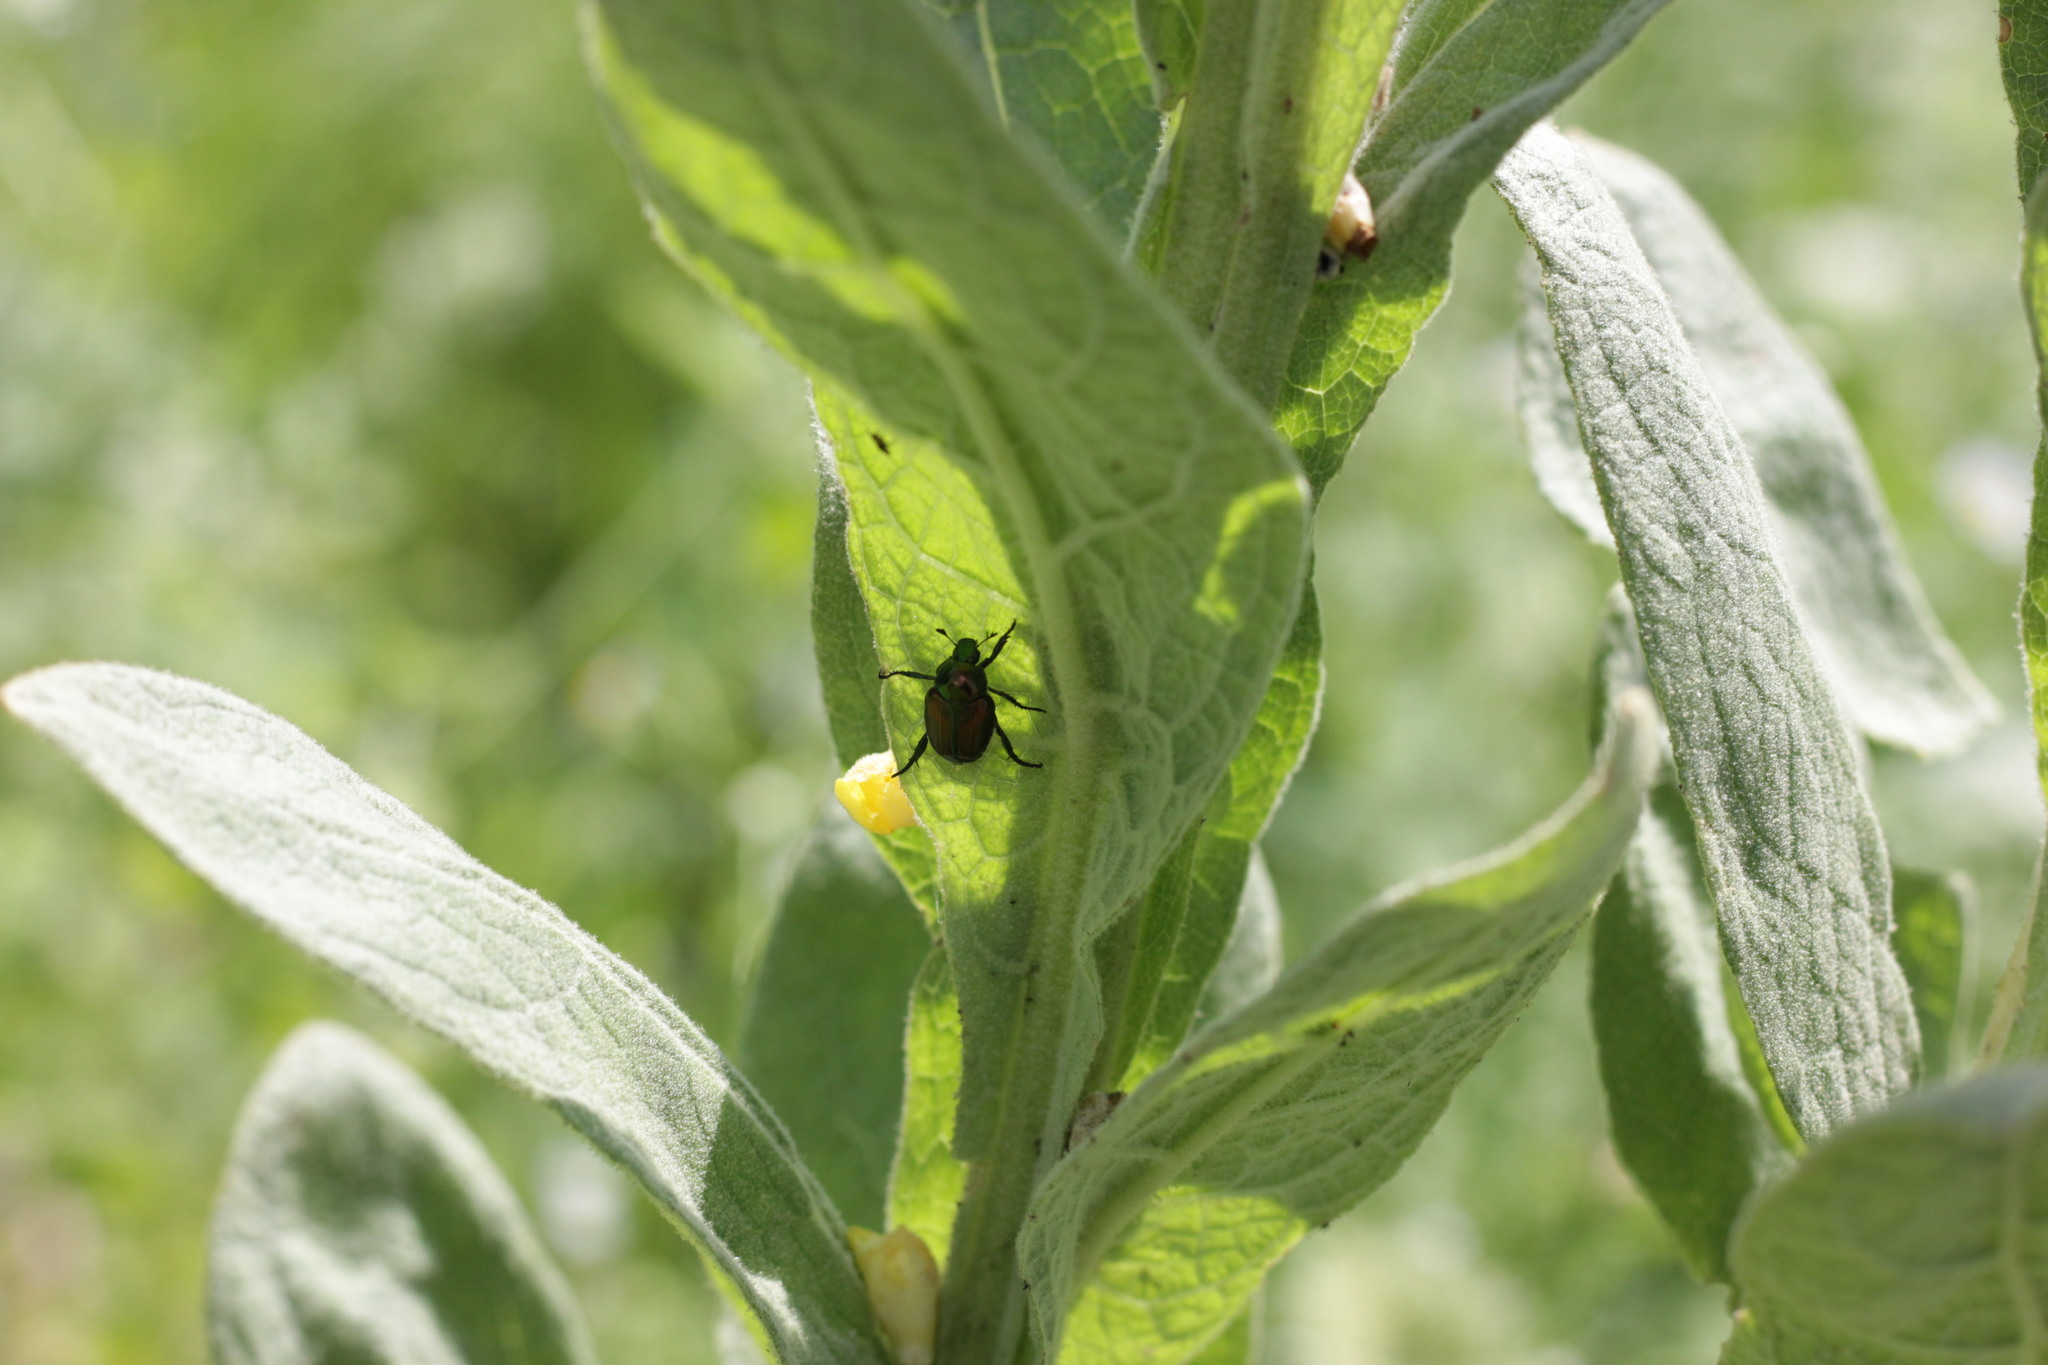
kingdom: Animalia
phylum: Arthropoda
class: Insecta
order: Coleoptera
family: Scarabaeidae
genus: Popillia
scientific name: Popillia japonica
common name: Japanese beetle
